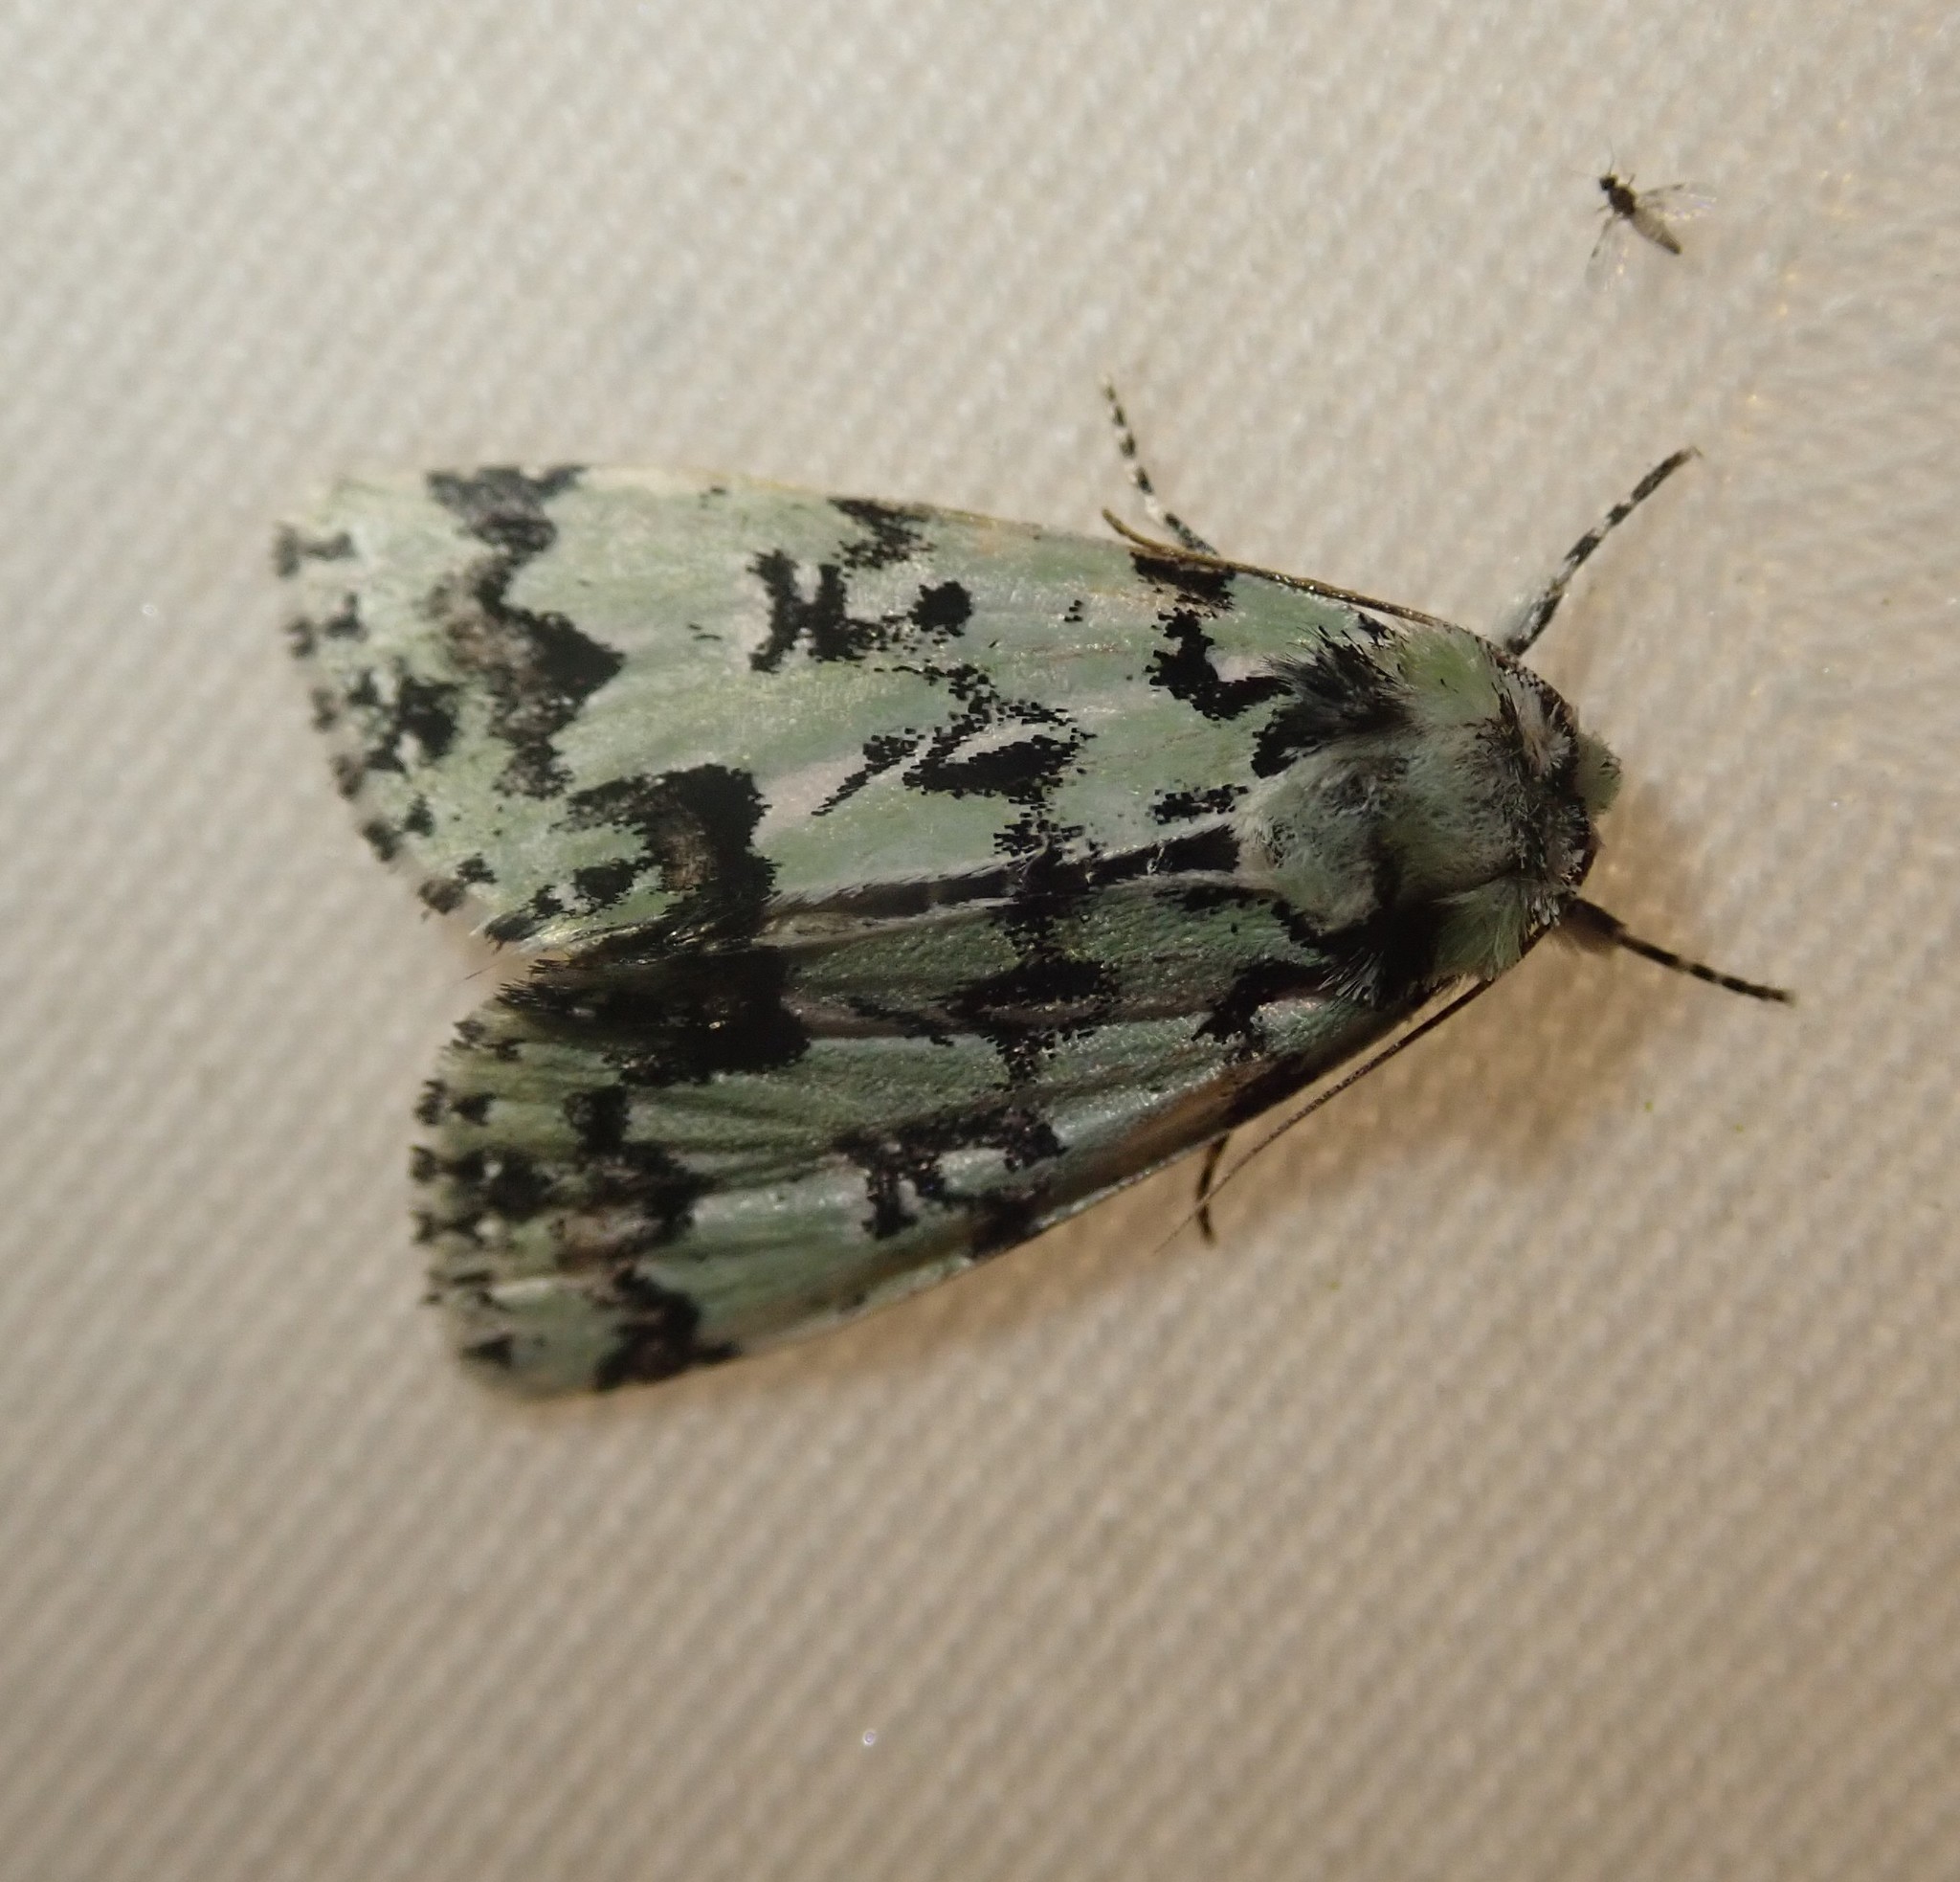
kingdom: Animalia
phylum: Arthropoda
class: Insecta
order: Lepidoptera
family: Noctuidae
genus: Moma
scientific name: Moma alpium
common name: Scarce merveille du jour
